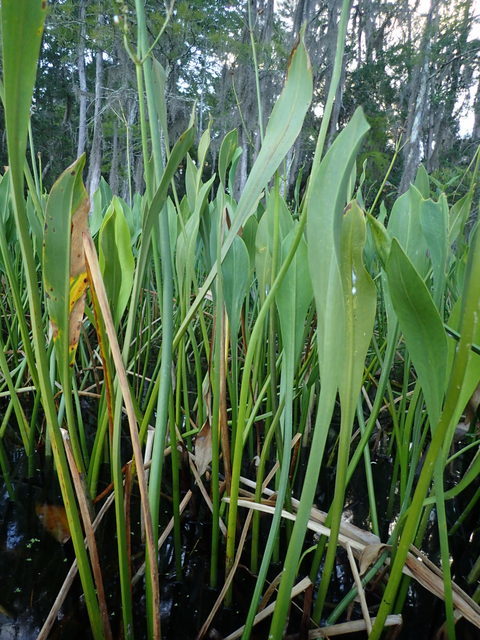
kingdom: Plantae
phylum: Tracheophyta
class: Liliopsida
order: Alismatales
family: Alismataceae
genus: Sagittaria
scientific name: Sagittaria lancifolia
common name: Lance-leaf arrowhead
